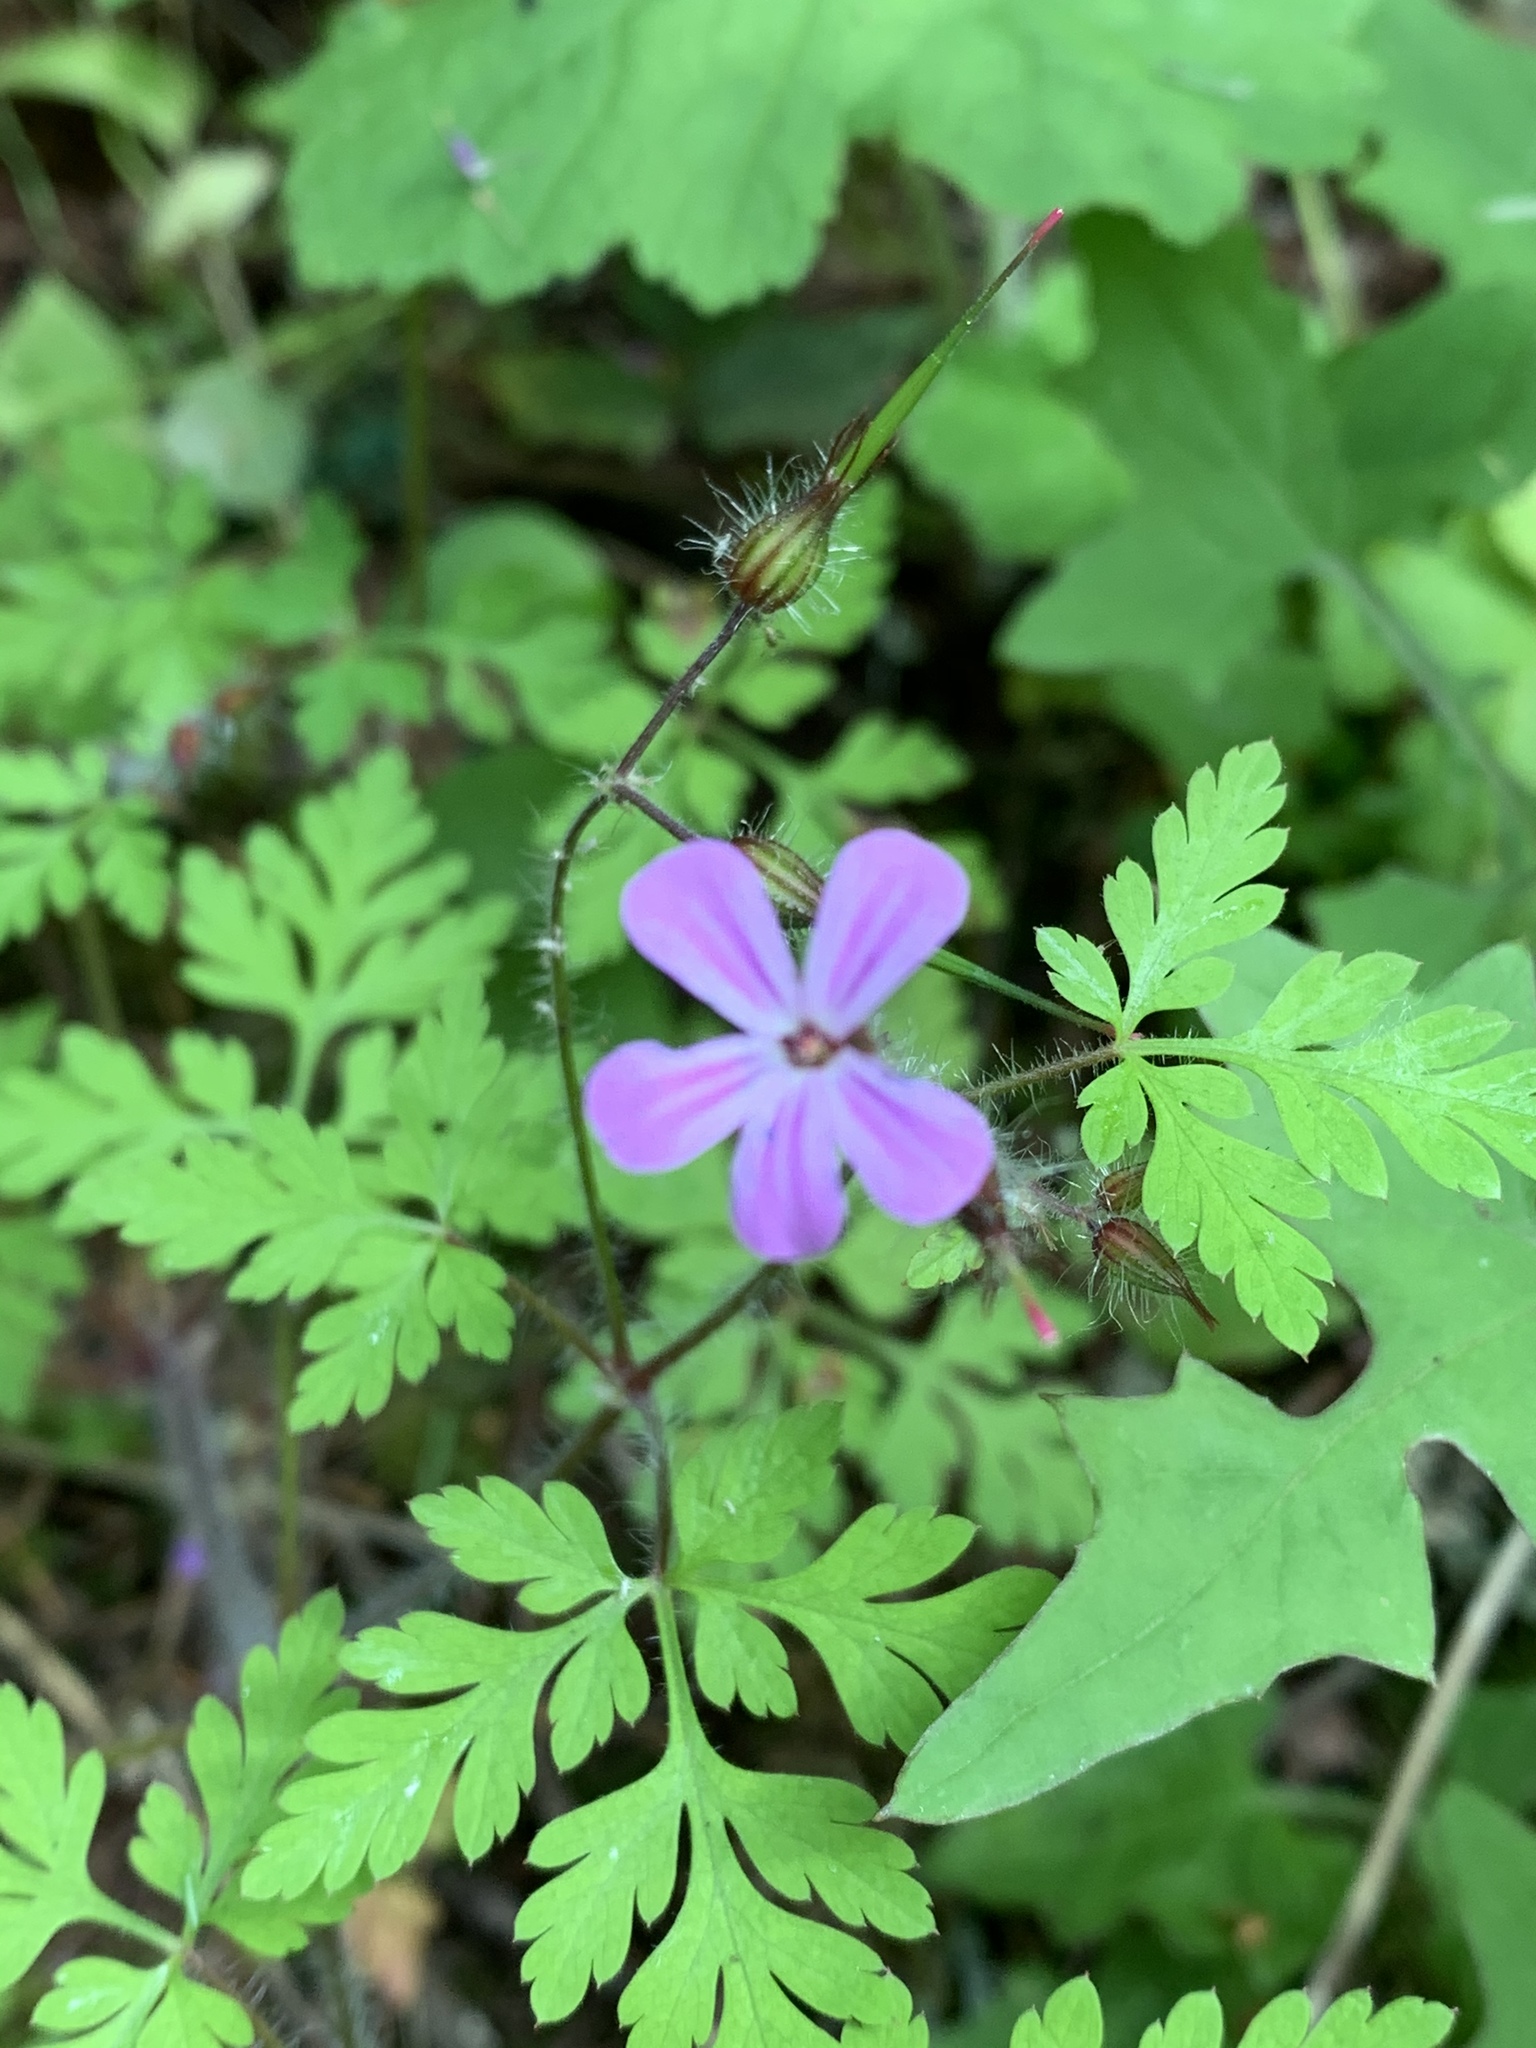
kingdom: Plantae
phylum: Tracheophyta
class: Magnoliopsida
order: Geraniales
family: Geraniaceae
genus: Geranium
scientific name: Geranium robertianum
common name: Herb-robert
